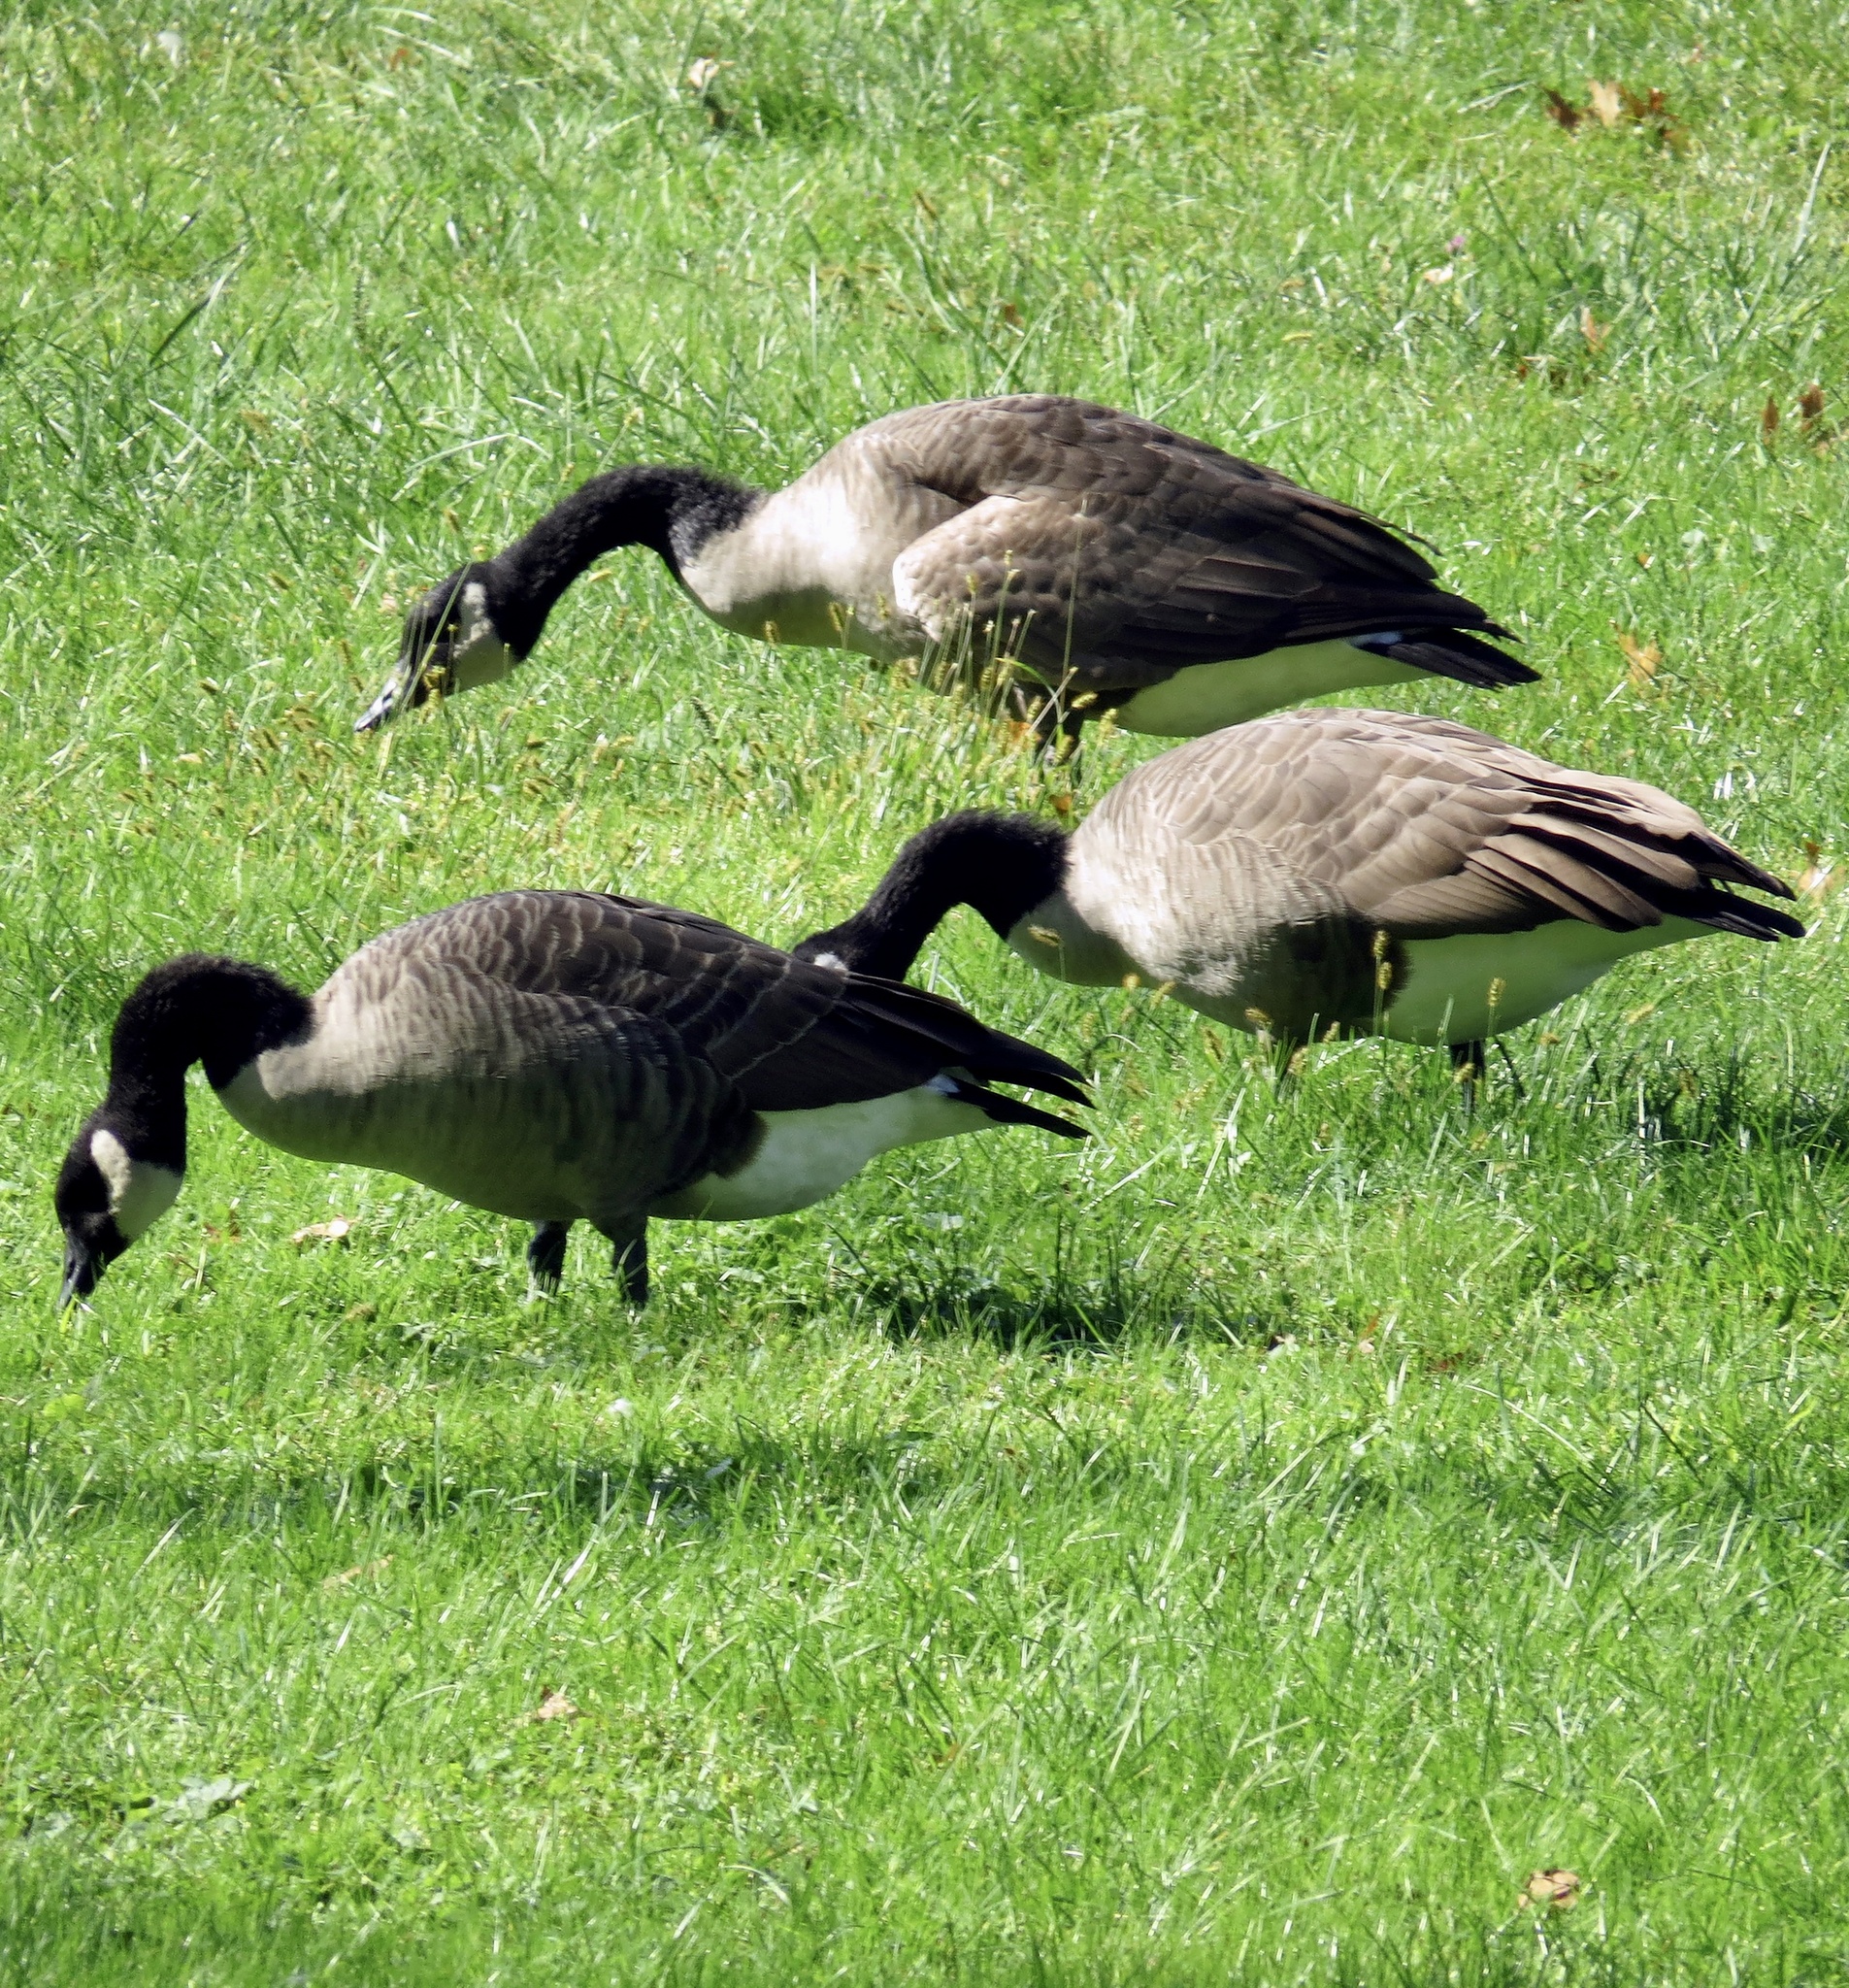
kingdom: Animalia
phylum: Chordata
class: Aves
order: Anseriformes
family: Anatidae
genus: Branta
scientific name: Branta canadensis
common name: Canada goose
